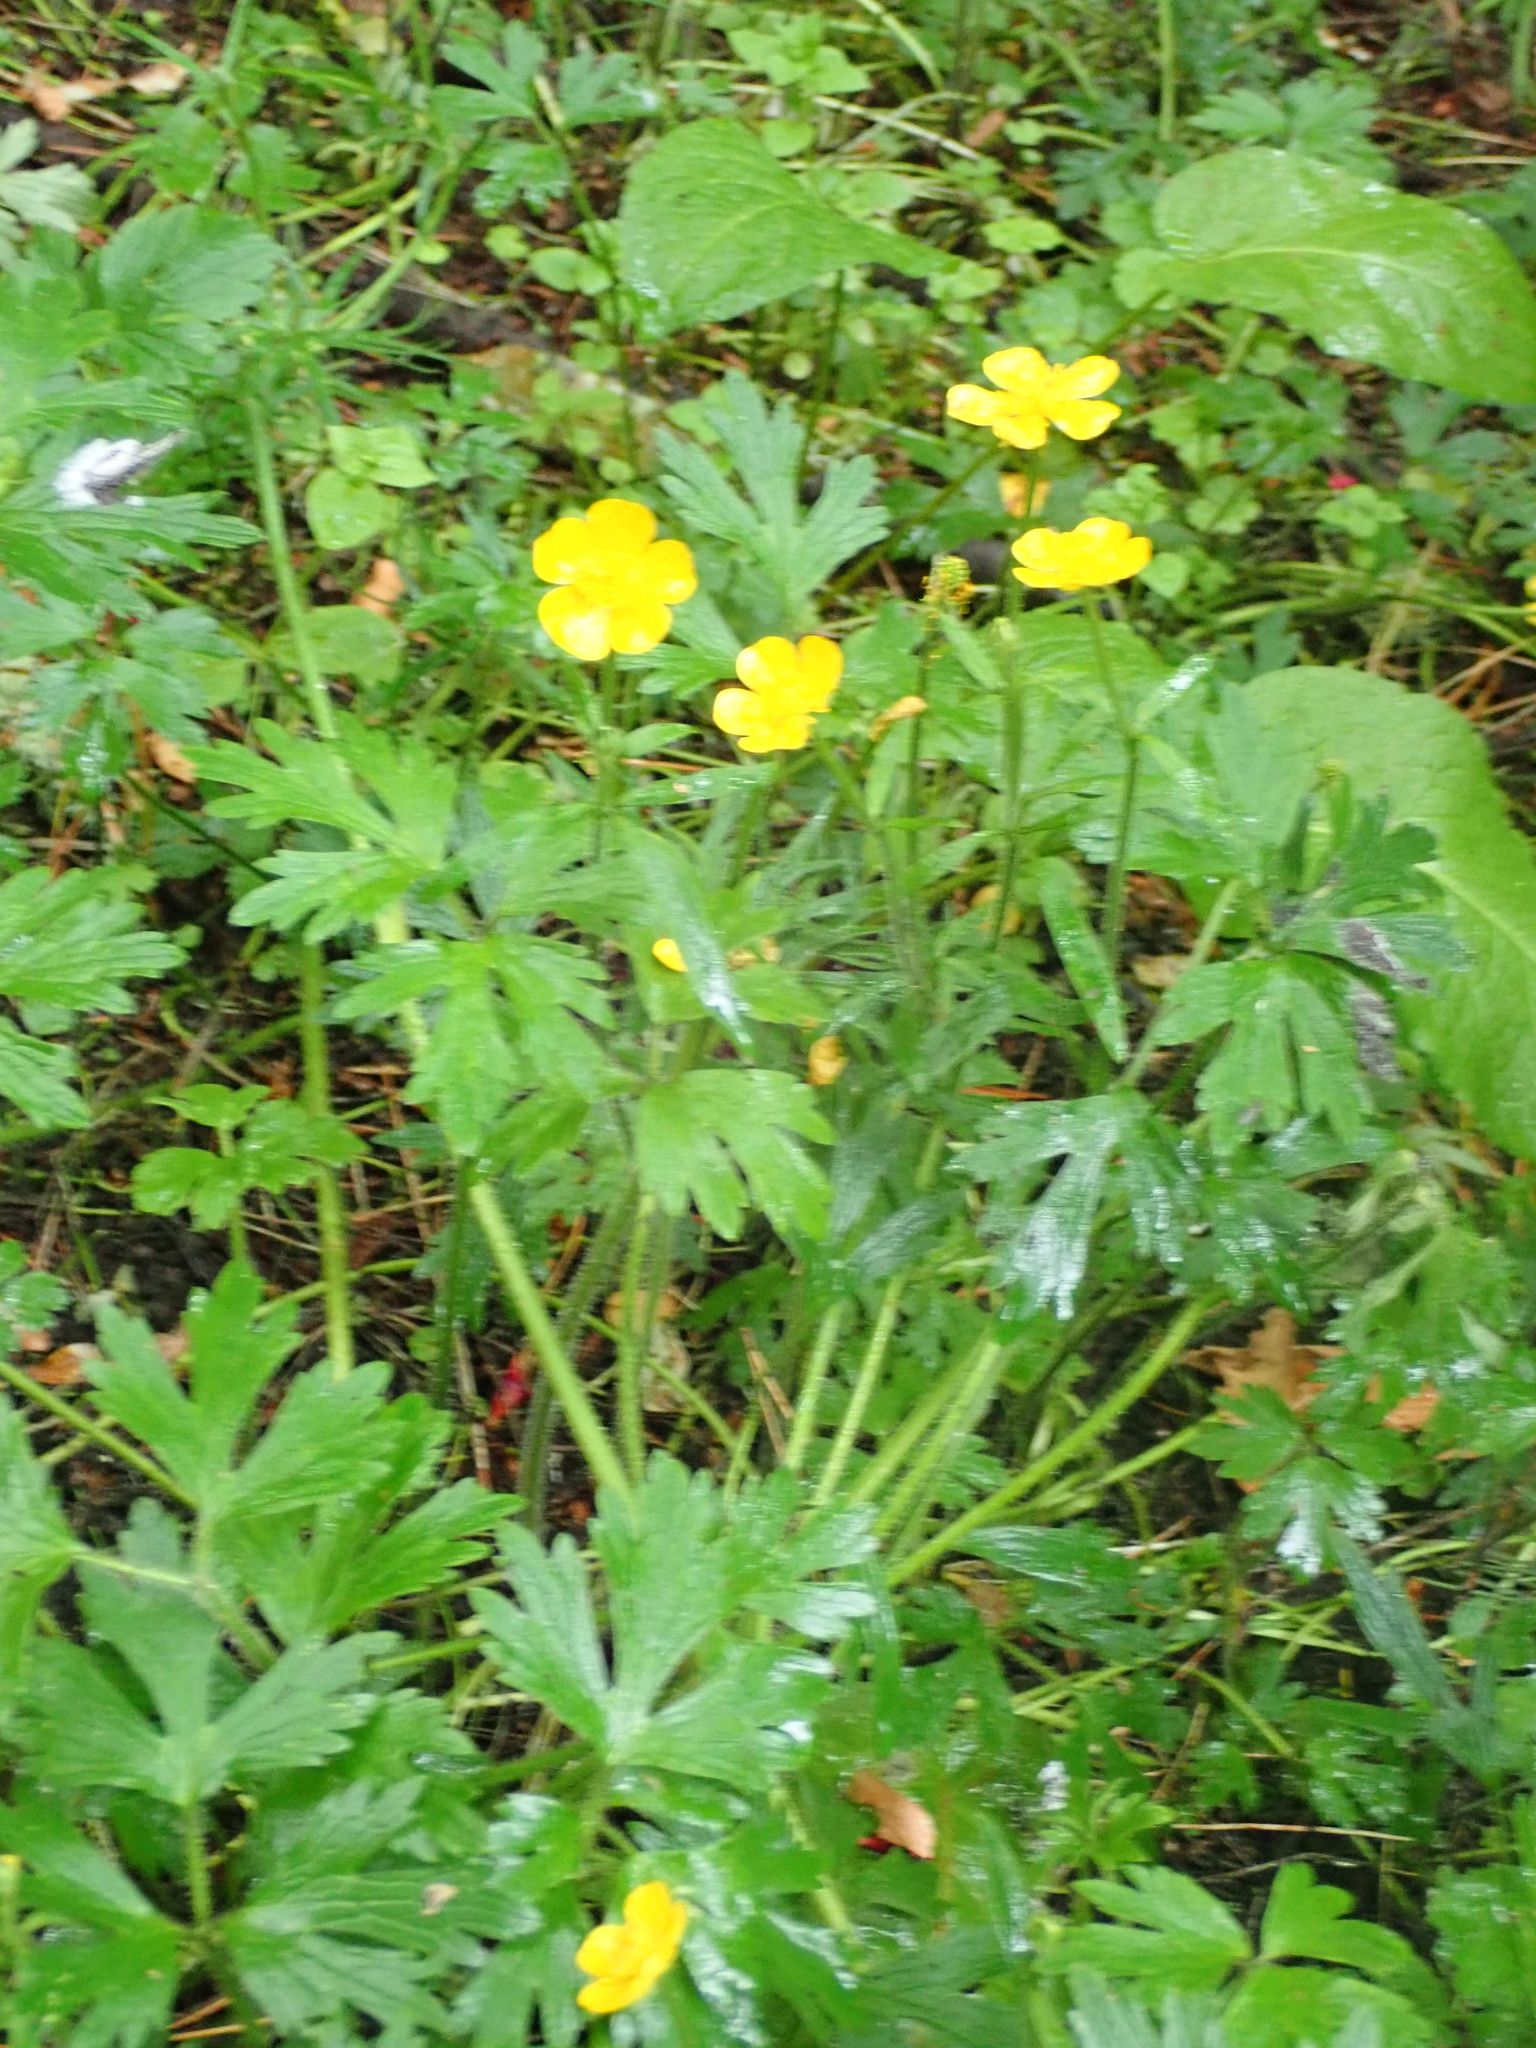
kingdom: Plantae
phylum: Tracheophyta
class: Magnoliopsida
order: Ranunculales
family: Ranunculaceae
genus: Ranunculus
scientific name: Ranunculus repens
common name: Creeping buttercup
